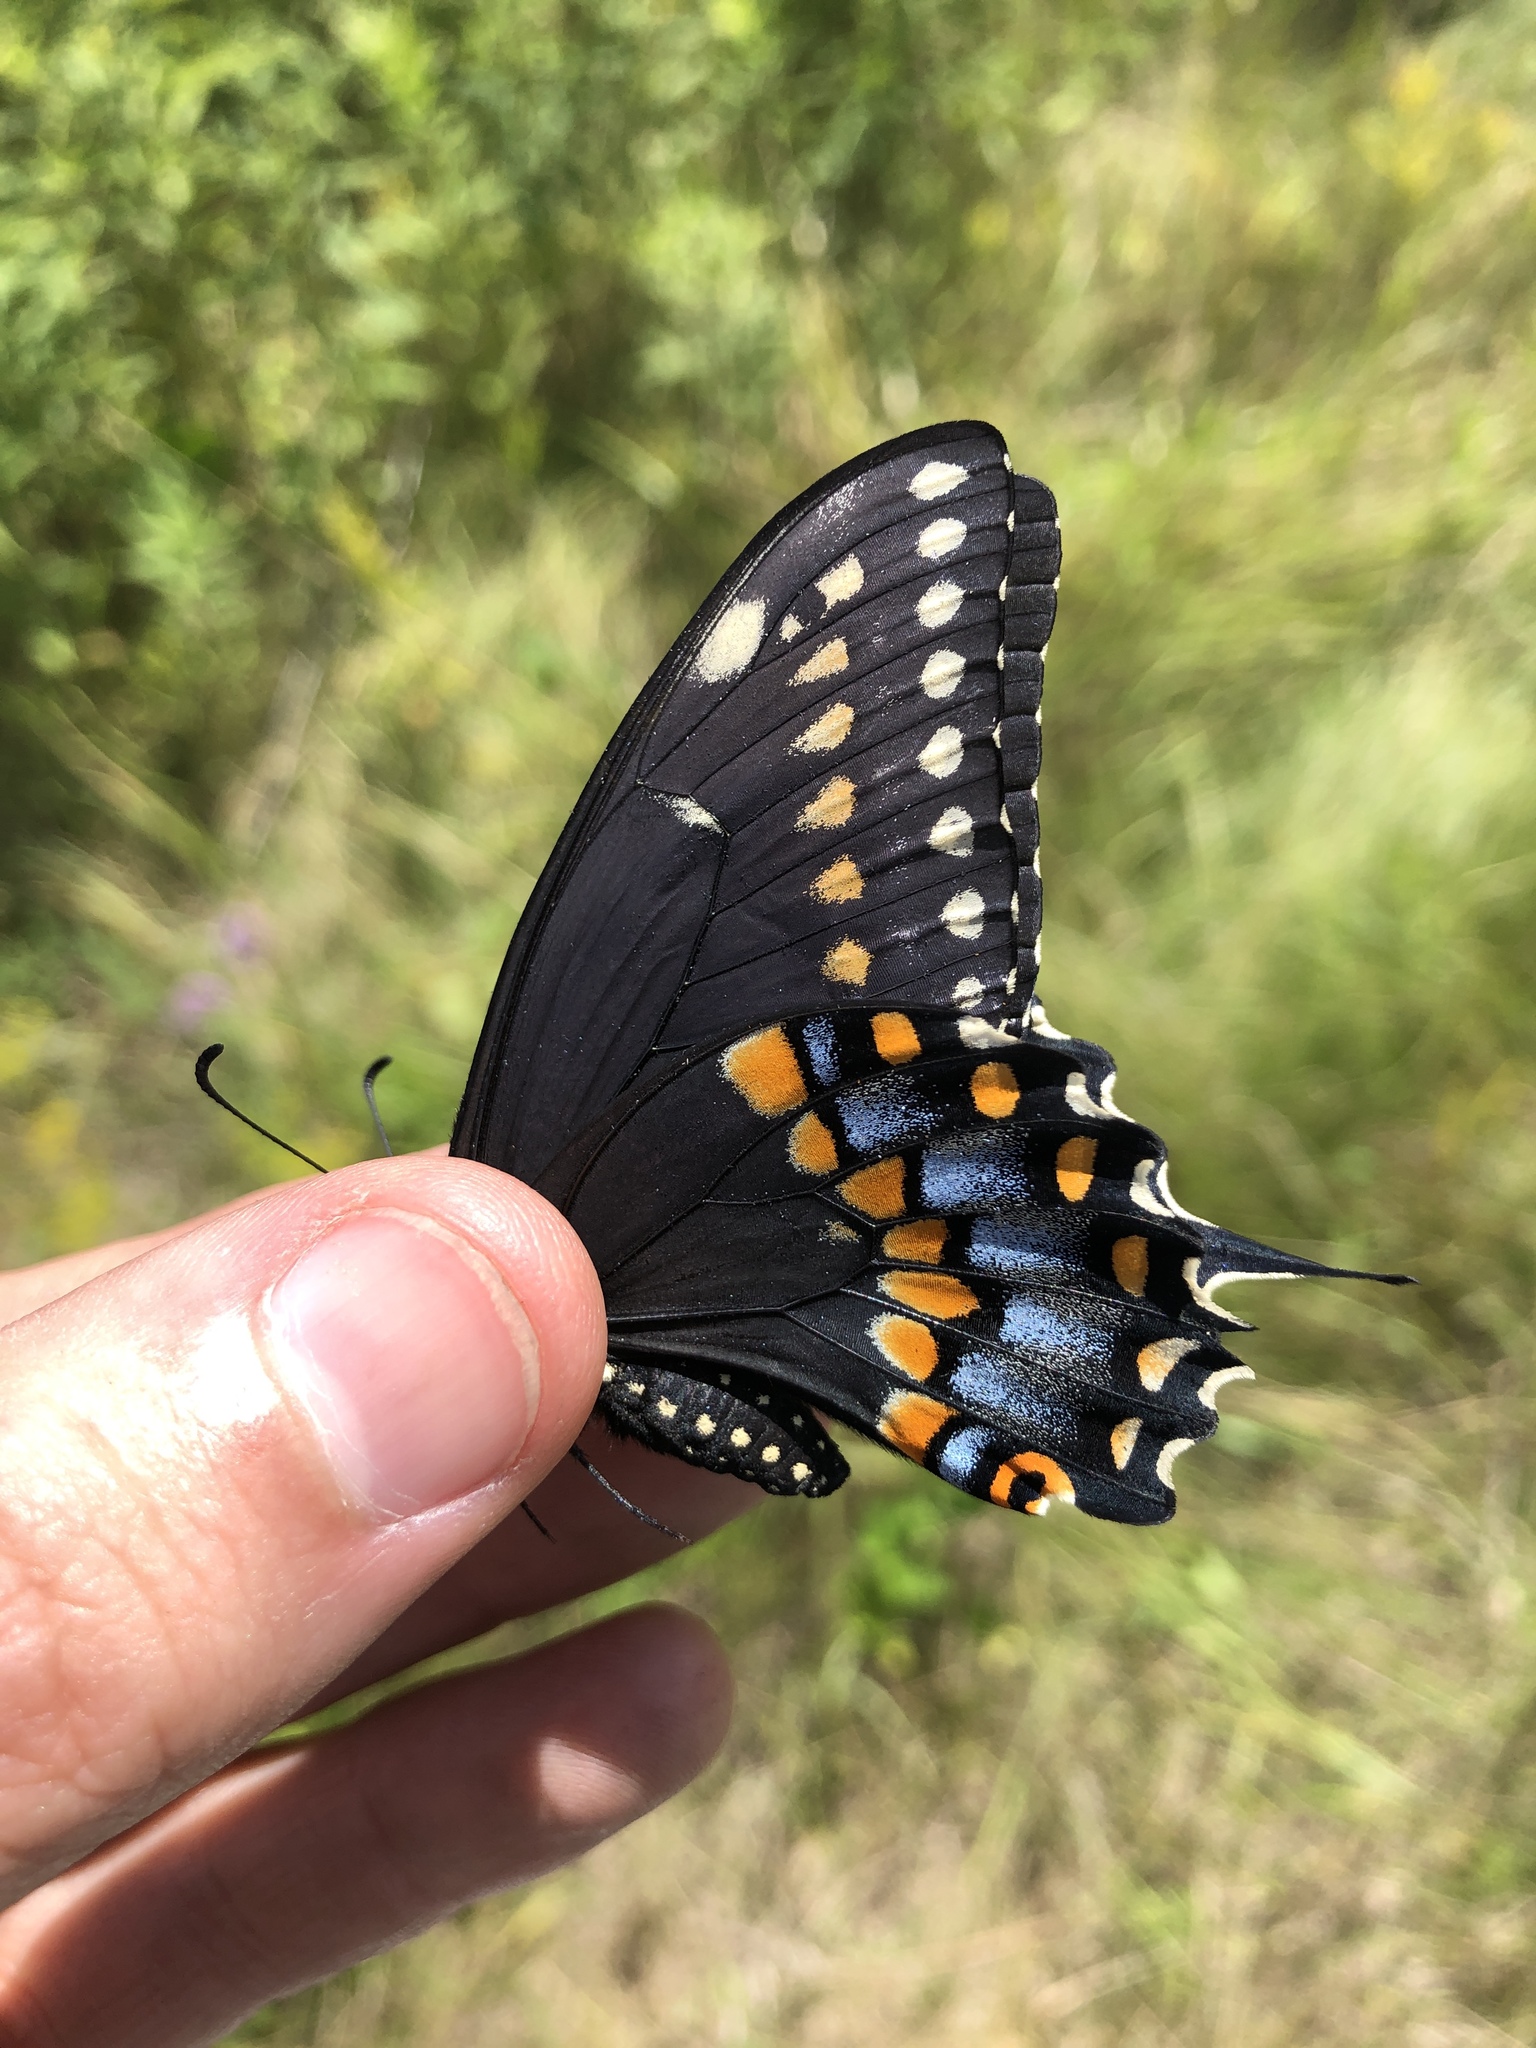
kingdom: Animalia
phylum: Arthropoda
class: Insecta
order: Lepidoptera
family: Papilionidae
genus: Papilio
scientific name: Papilio polyxenes
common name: Black swallowtail
